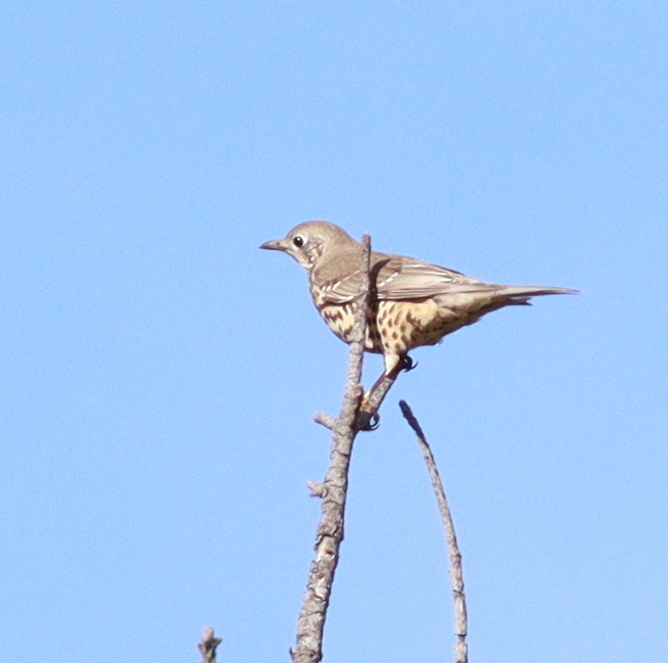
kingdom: Animalia
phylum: Chordata
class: Aves
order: Passeriformes
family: Turdidae
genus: Turdus
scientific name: Turdus viscivorus
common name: Mistle thrush
